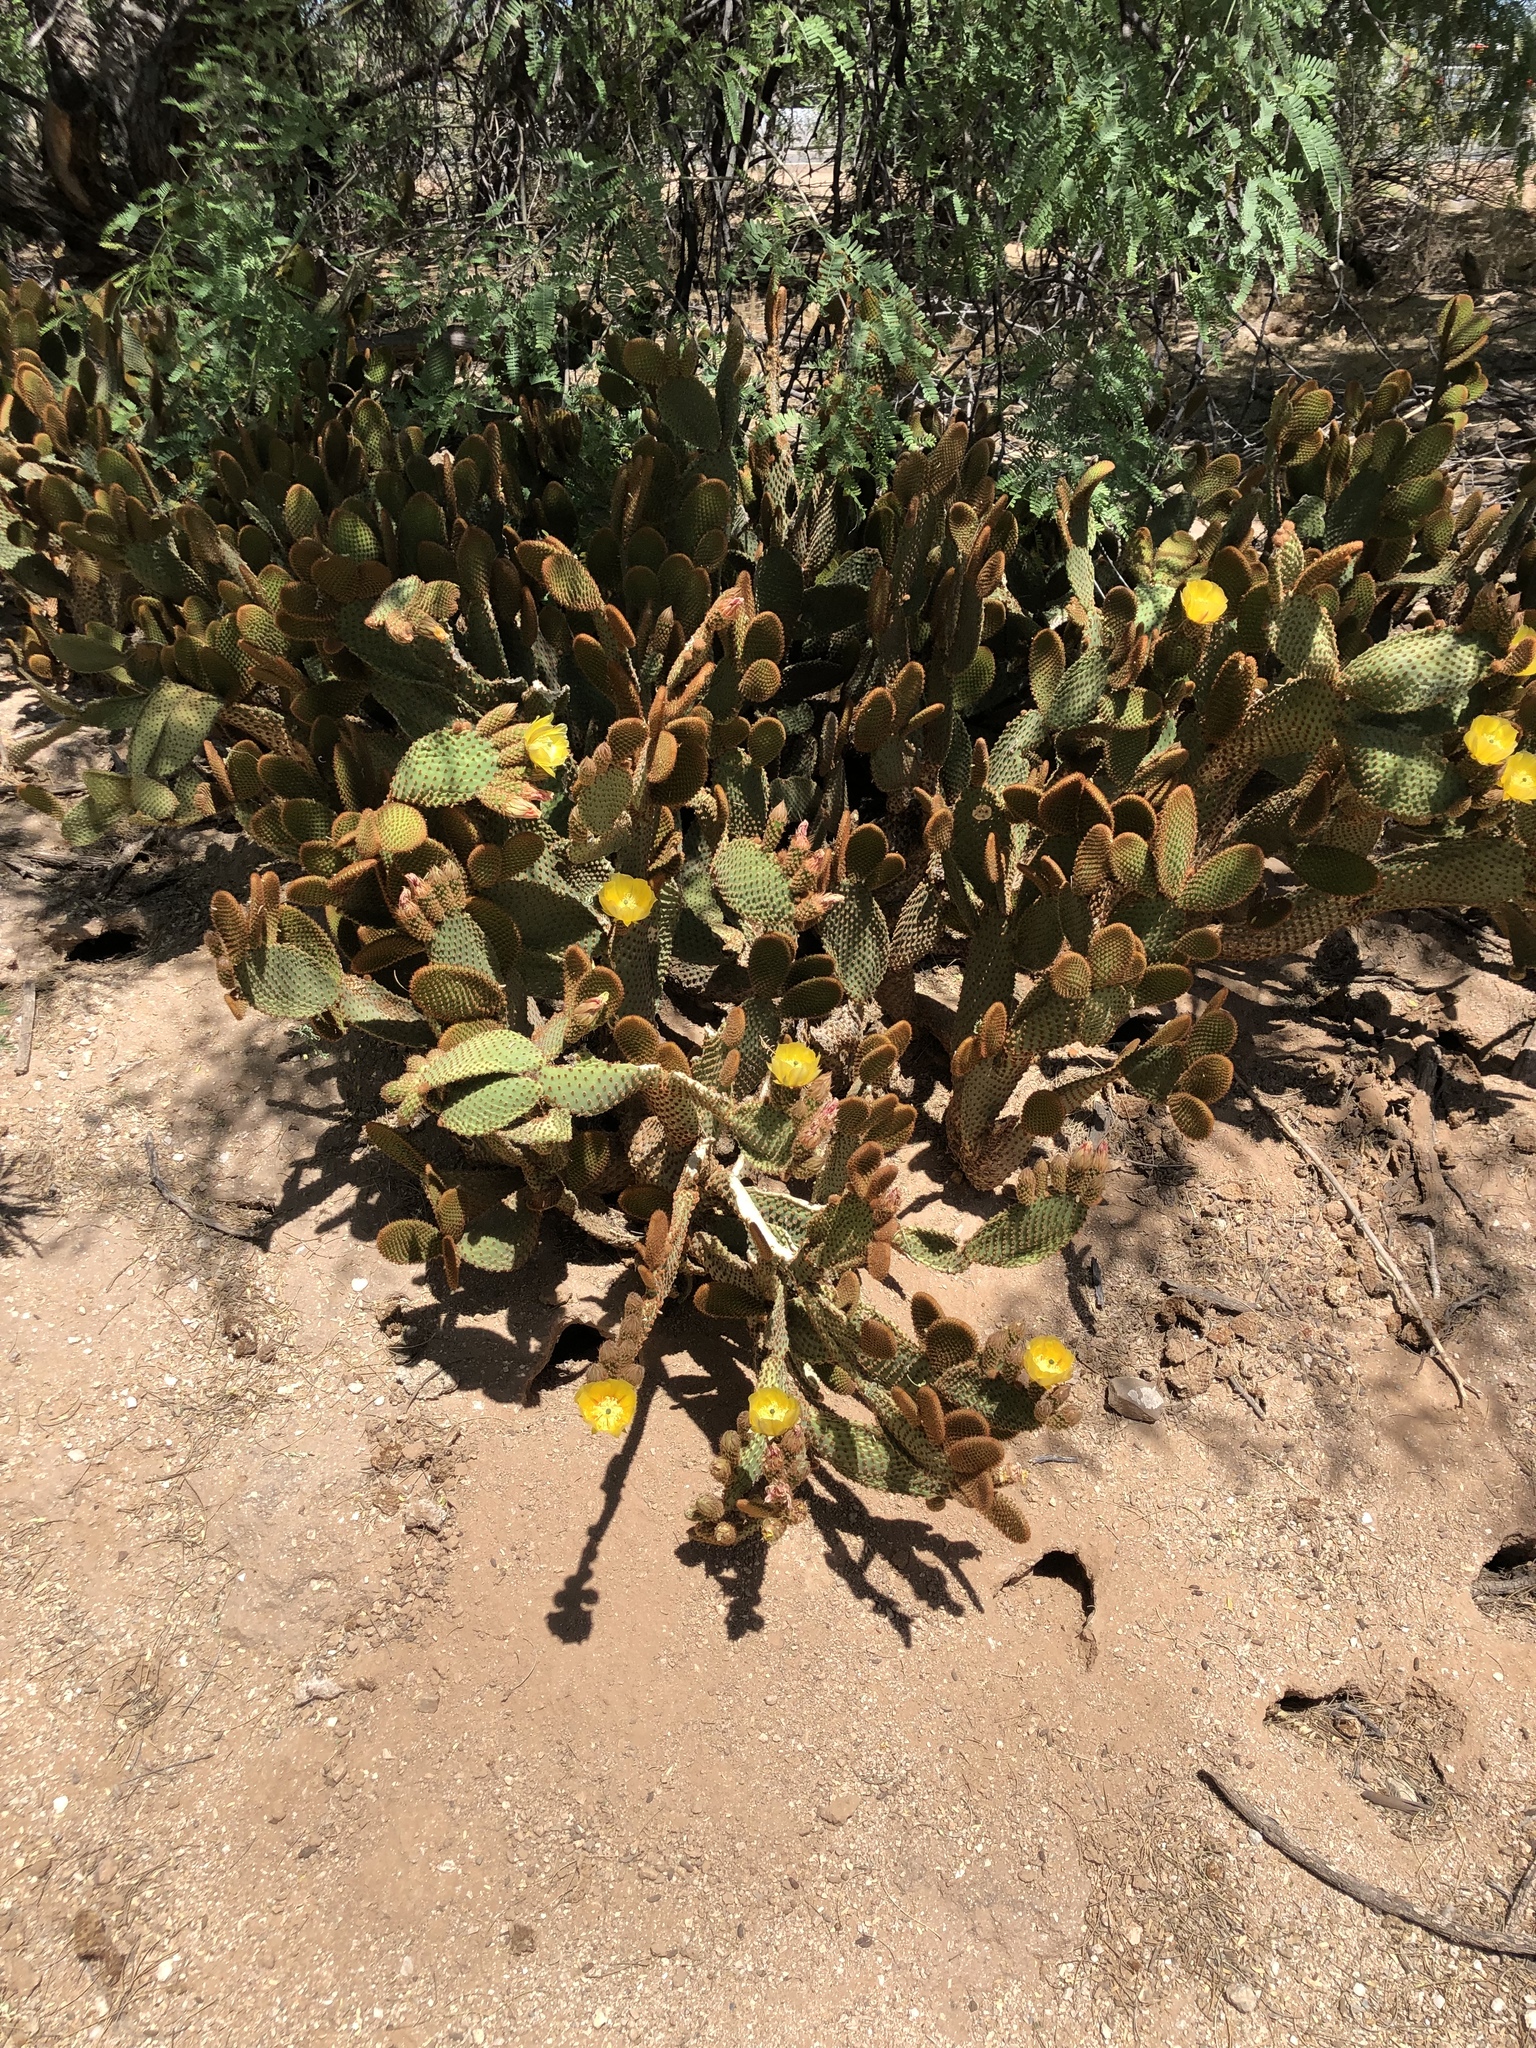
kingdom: Plantae
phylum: Tracheophyta
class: Magnoliopsida
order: Caryophyllales
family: Cactaceae
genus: Opuntia
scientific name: Opuntia microdasys
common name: Angel's-wings
